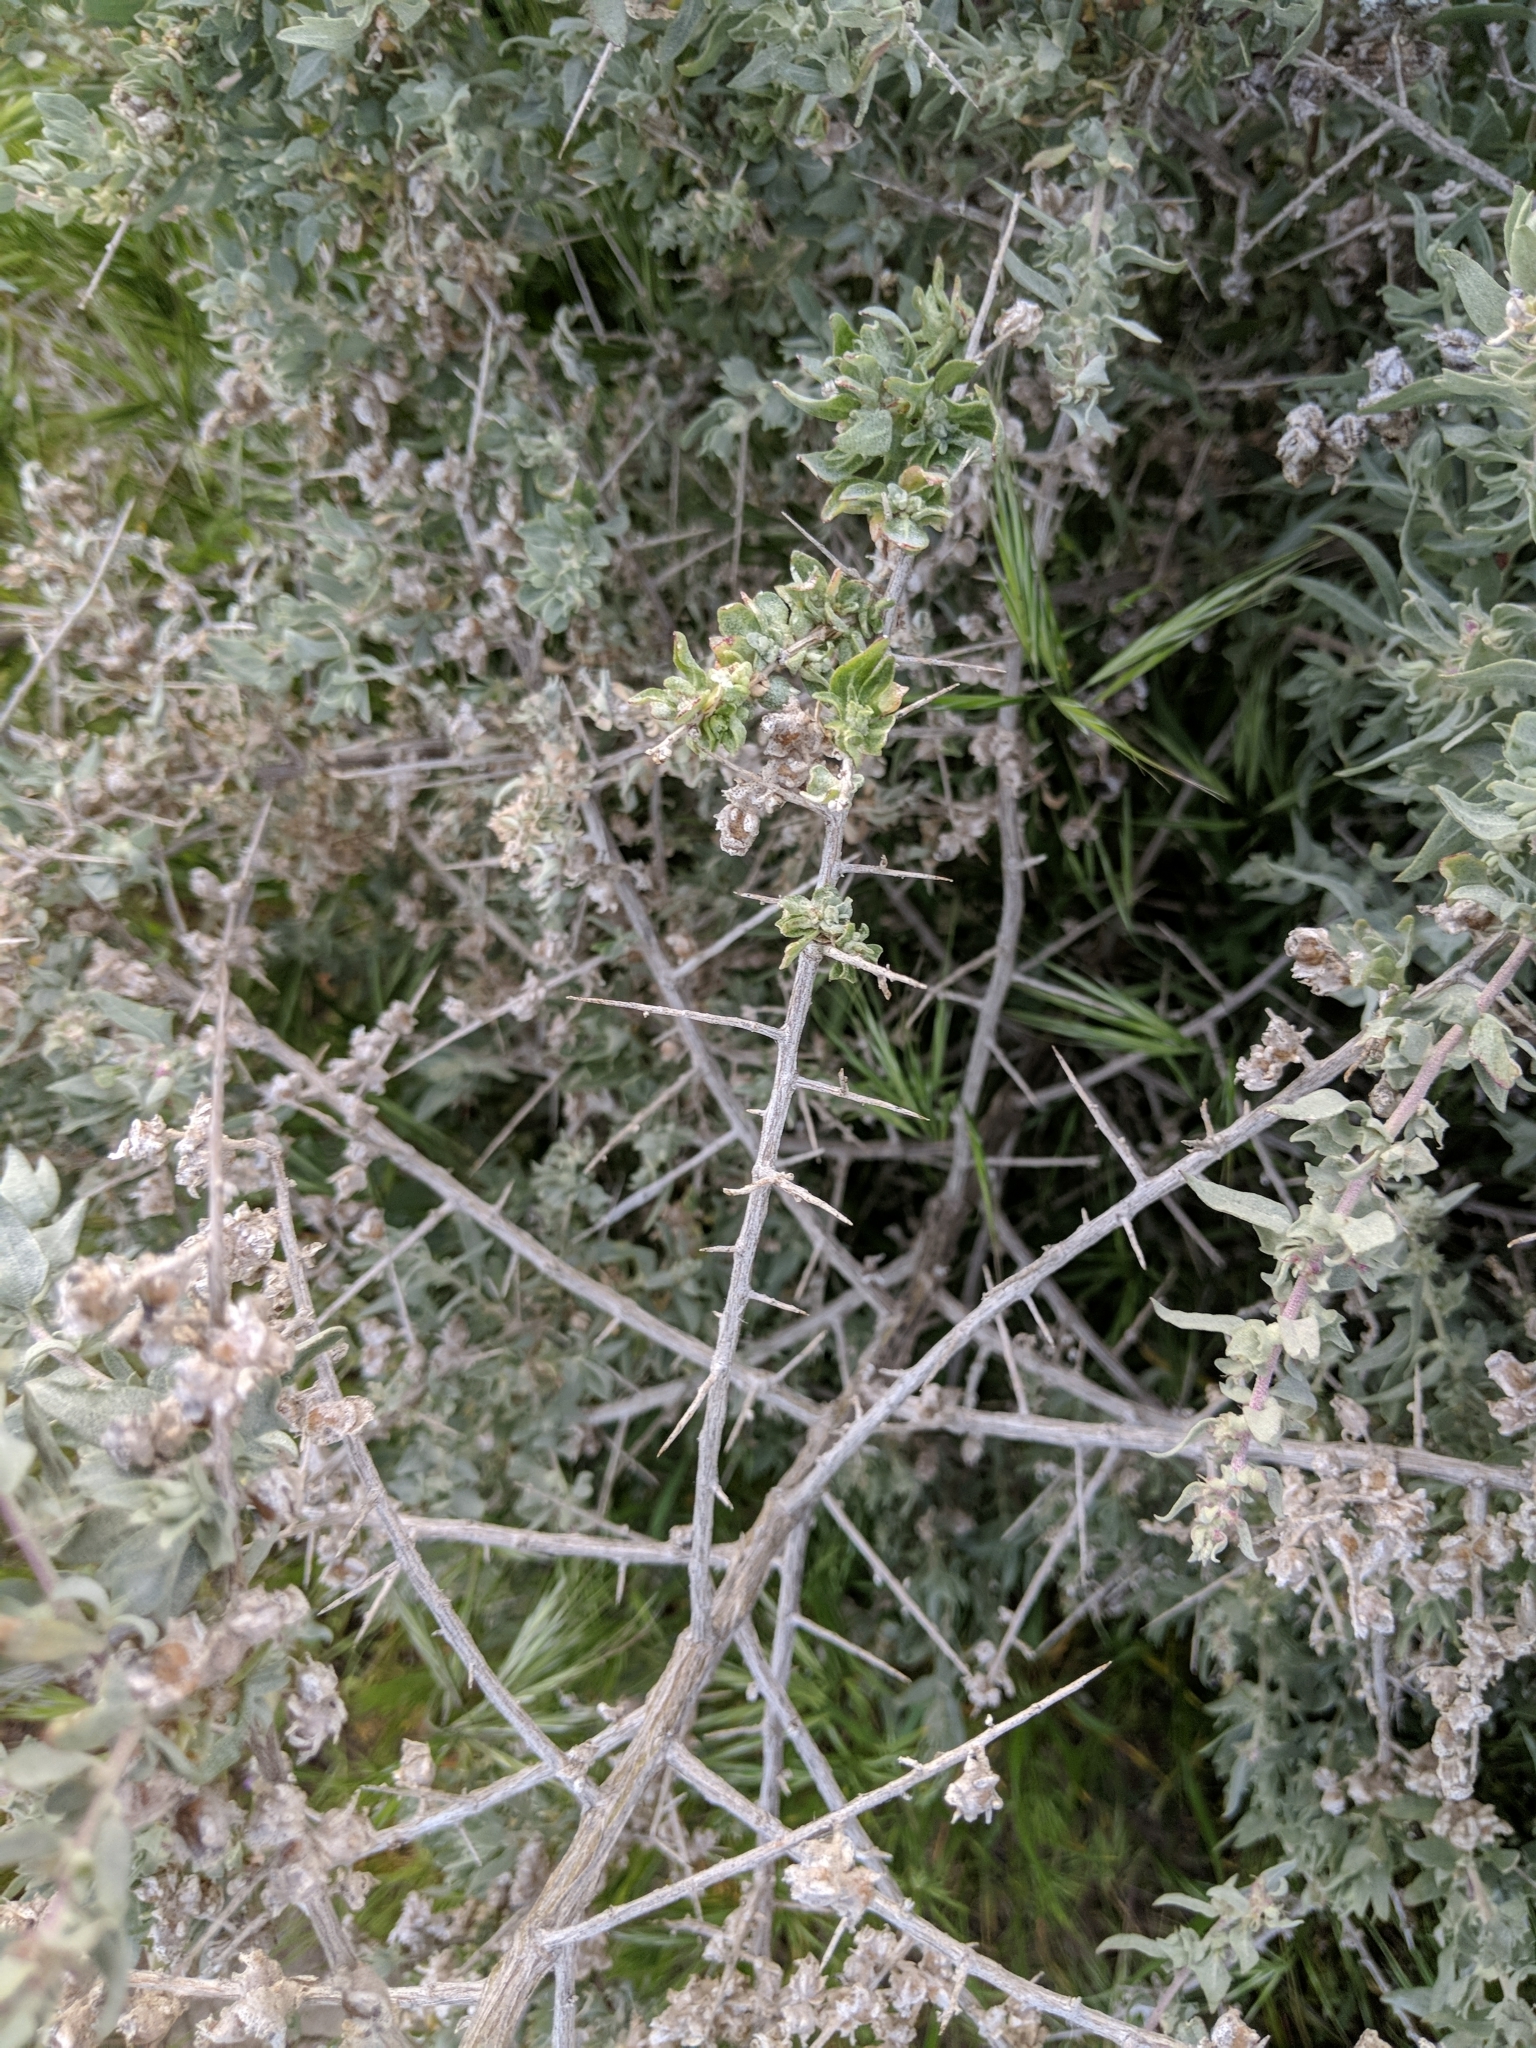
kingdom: Plantae
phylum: Tracheophyta
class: Magnoliopsida
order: Caryophyllales
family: Amaranthaceae
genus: Atriplex
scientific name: Atriplex spinifera
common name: Spiny saltbush
